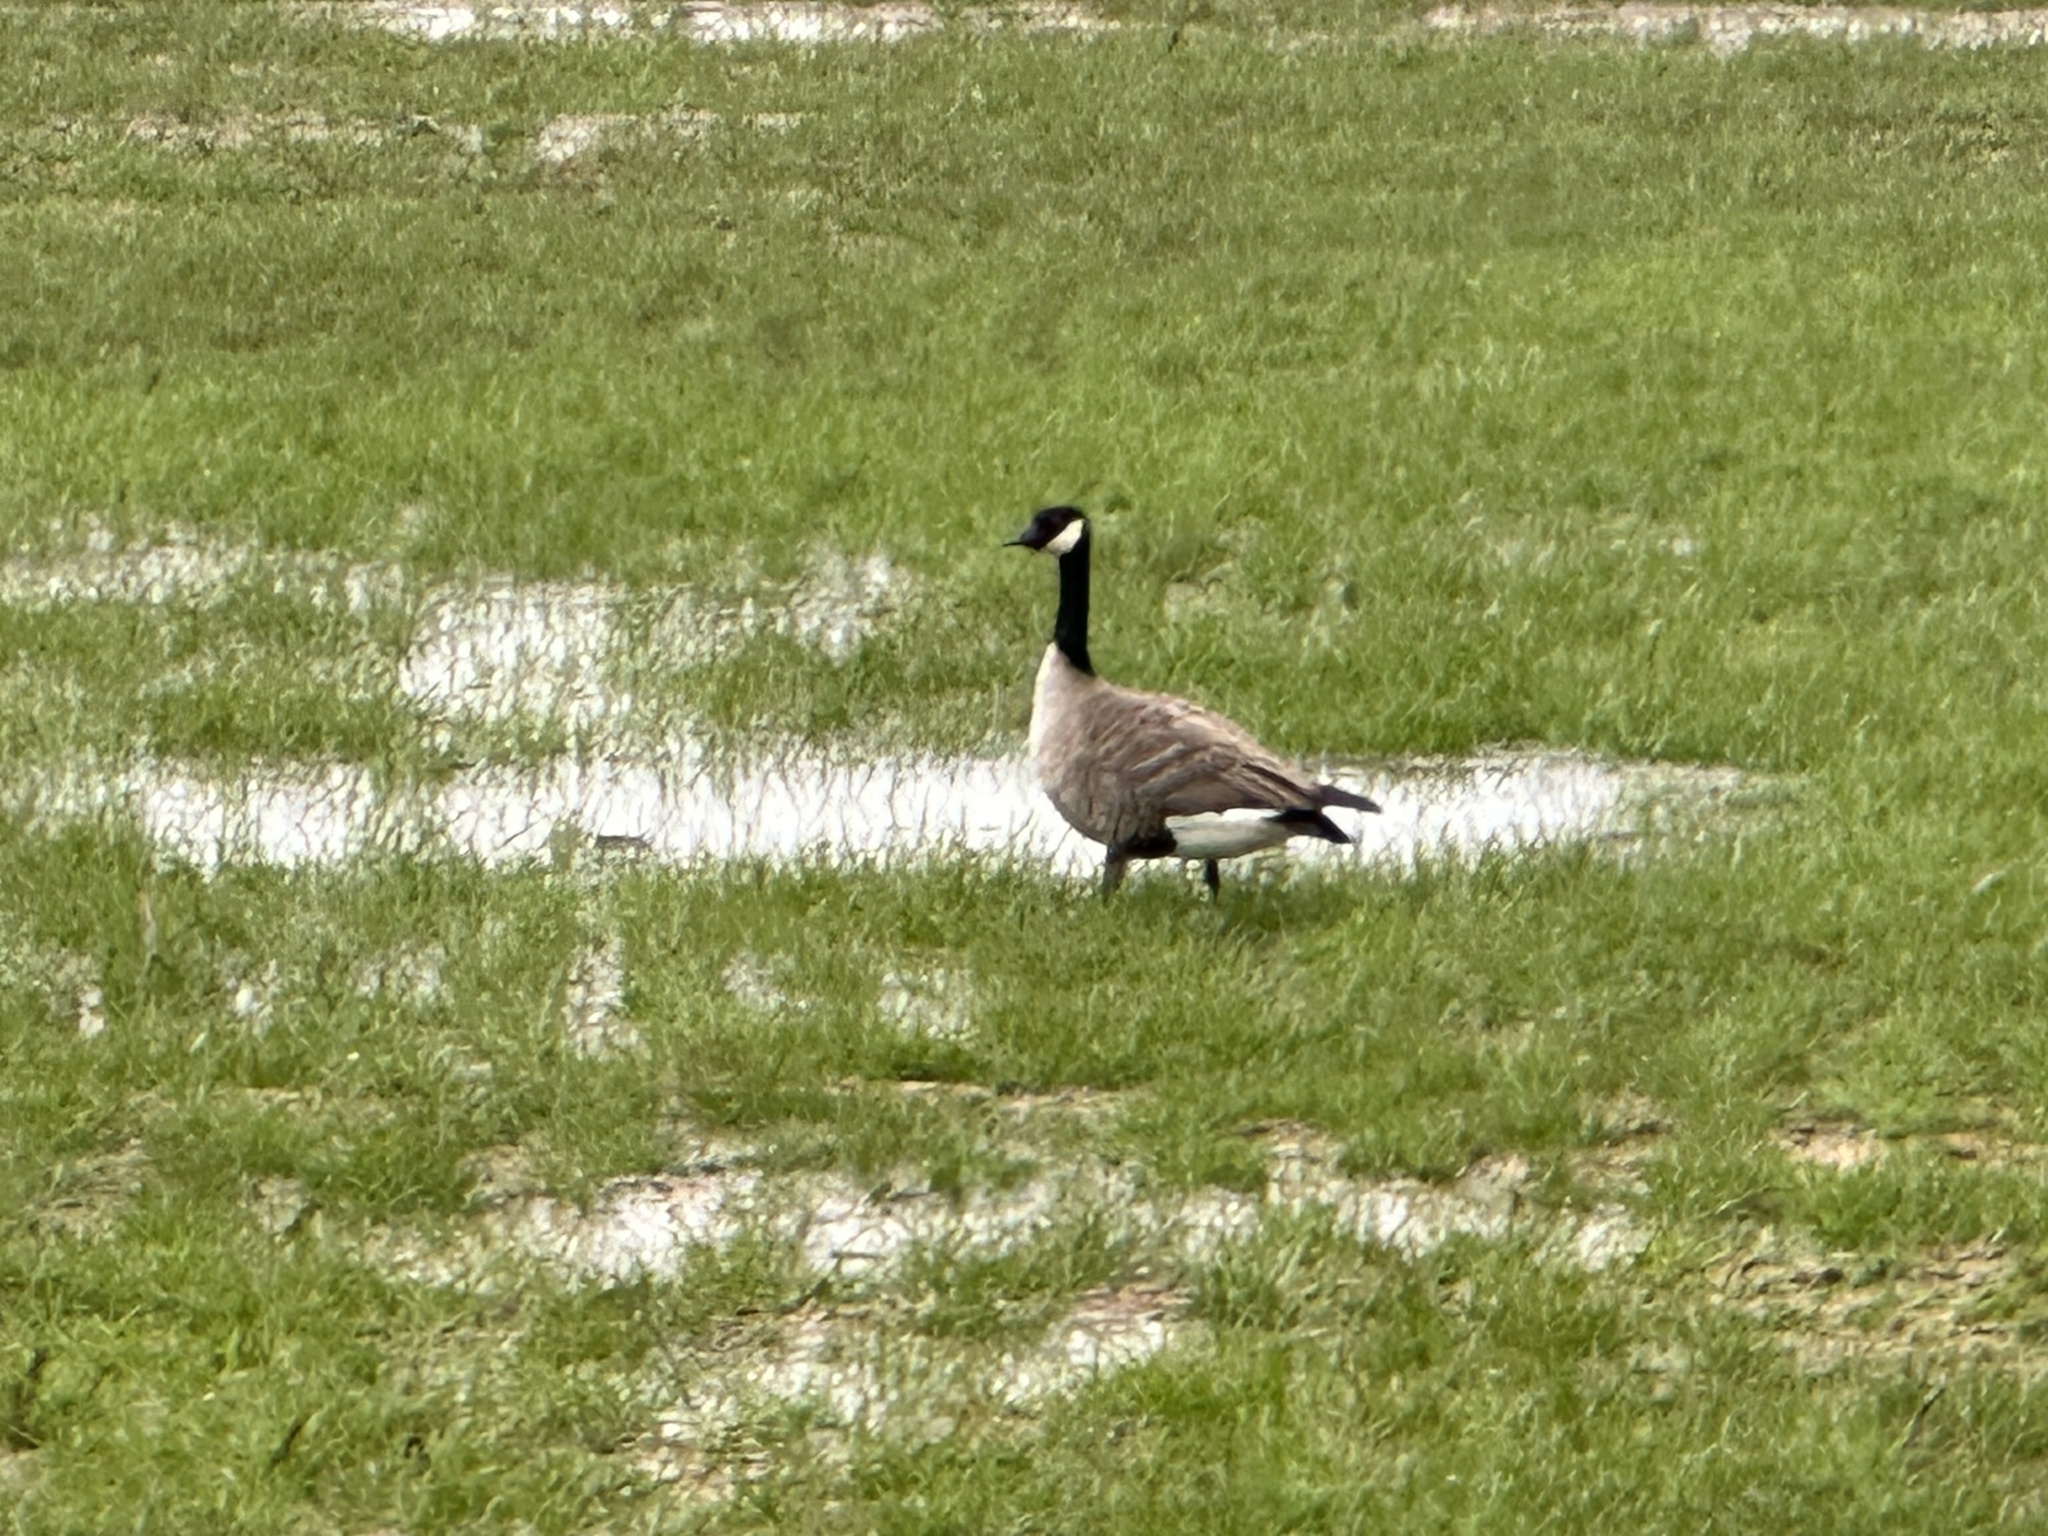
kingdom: Animalia
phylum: Chordata
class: Aves
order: Anseriformes
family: Anatidae
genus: Branta
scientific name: Branta hutchinsii
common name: Cackling goose
